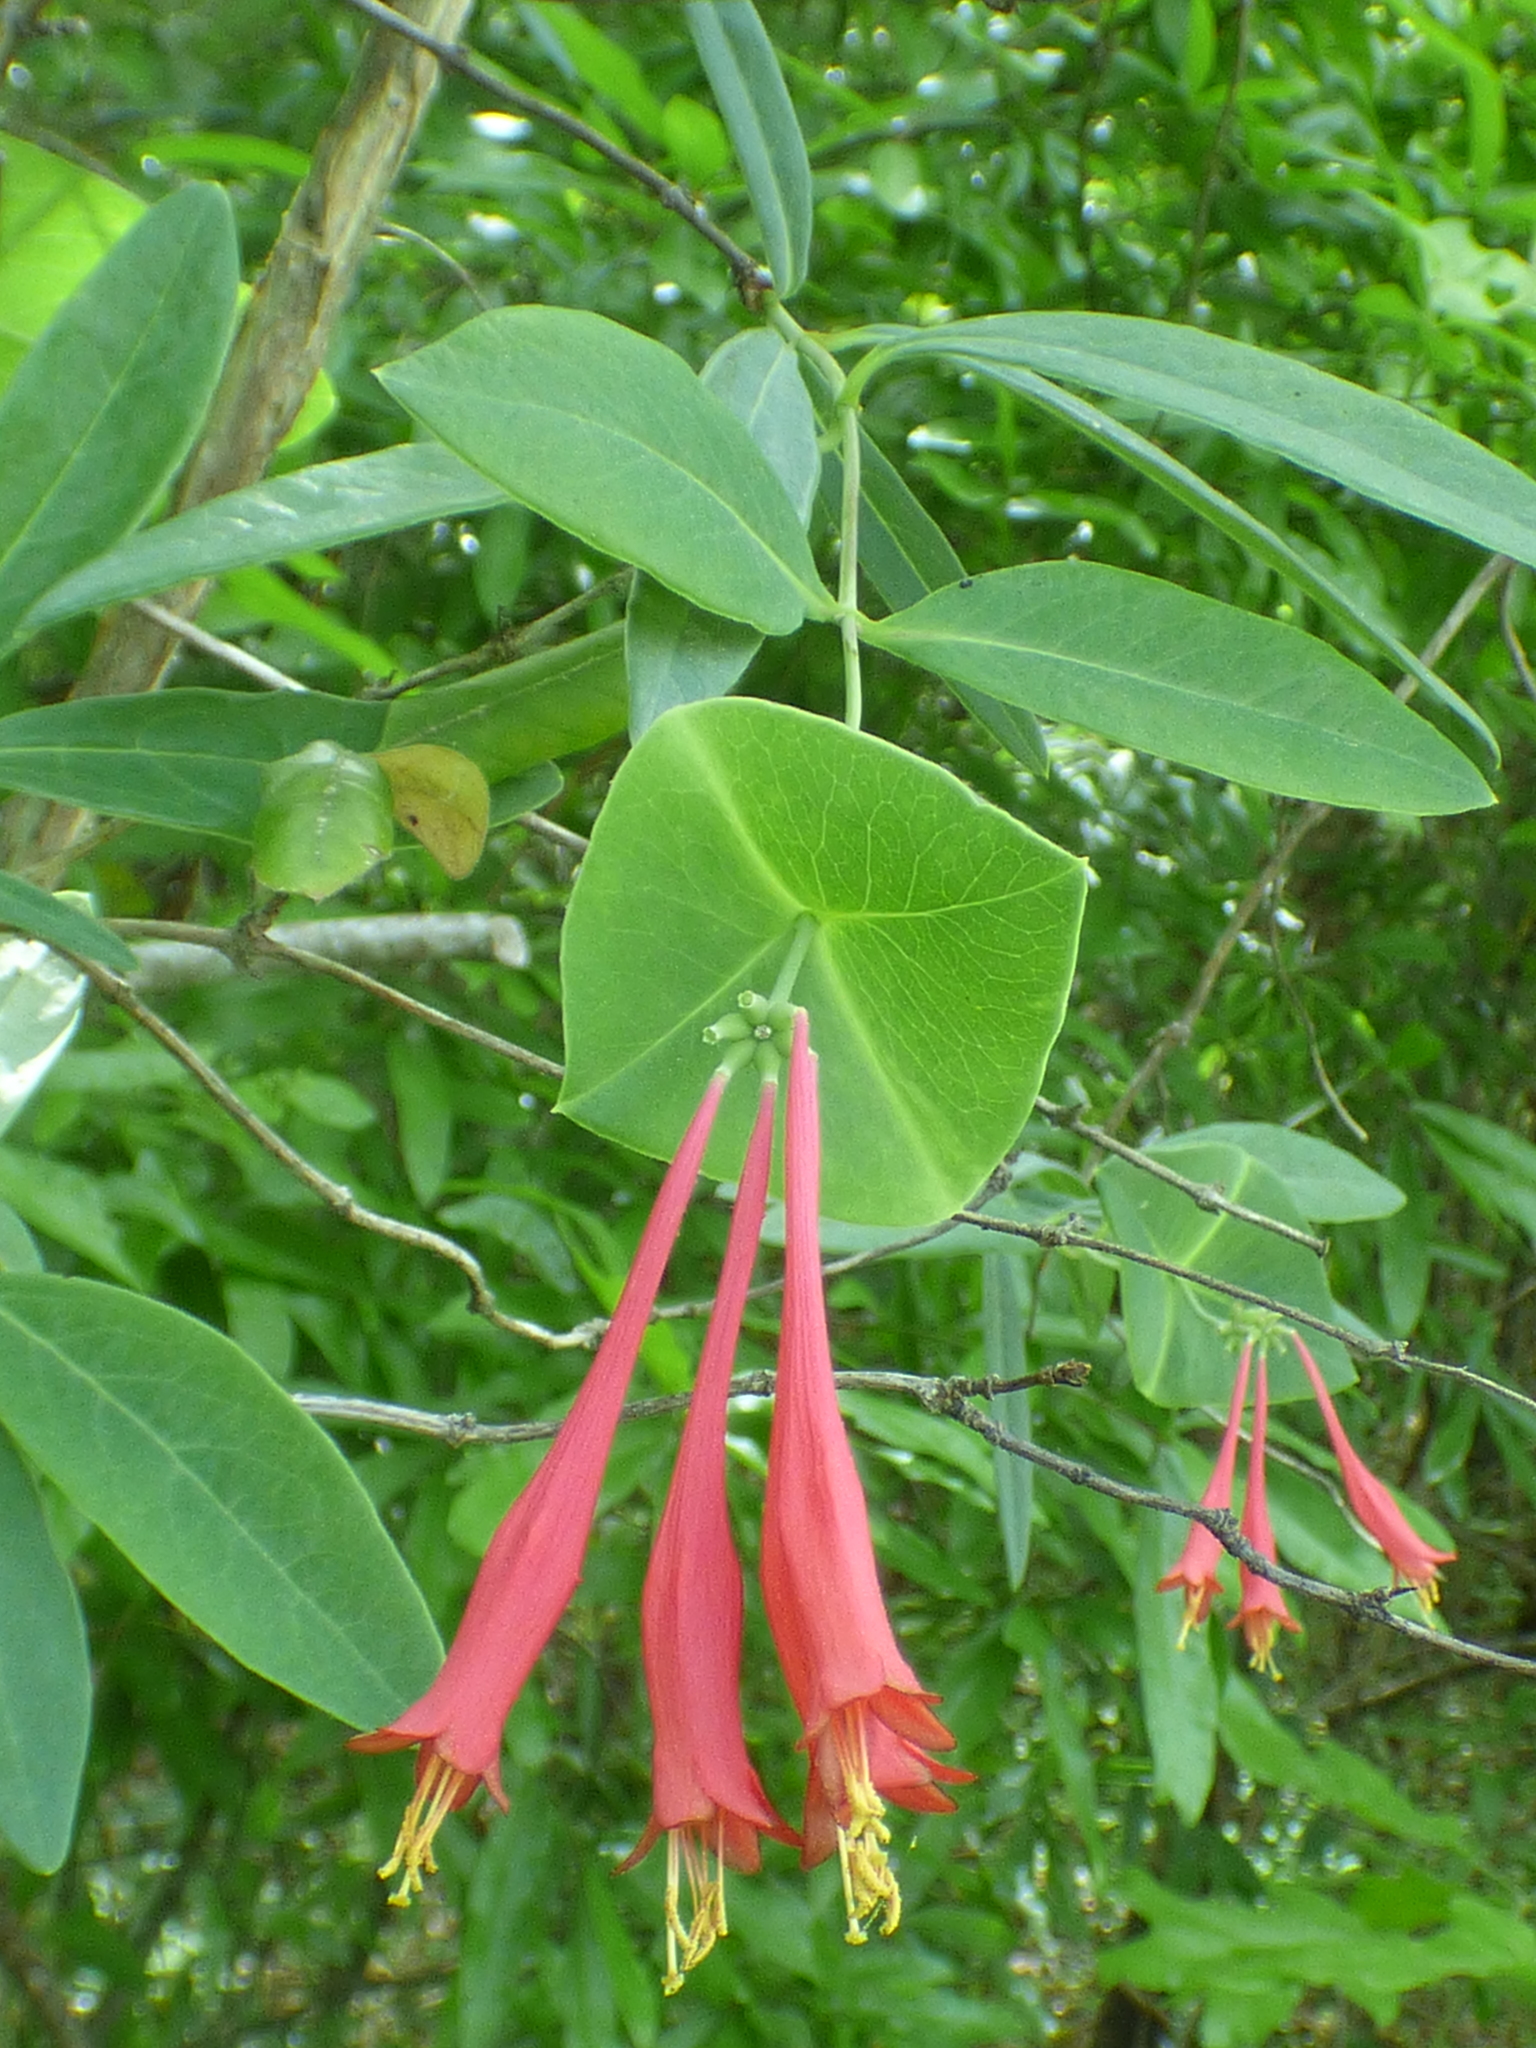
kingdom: Plantae
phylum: Tracheophyta
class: Magnoliopsida
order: Dipsacales
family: Caprifoliaceae
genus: Lonicera
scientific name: Lonicera sempervirens
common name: Coral honeysuckle
